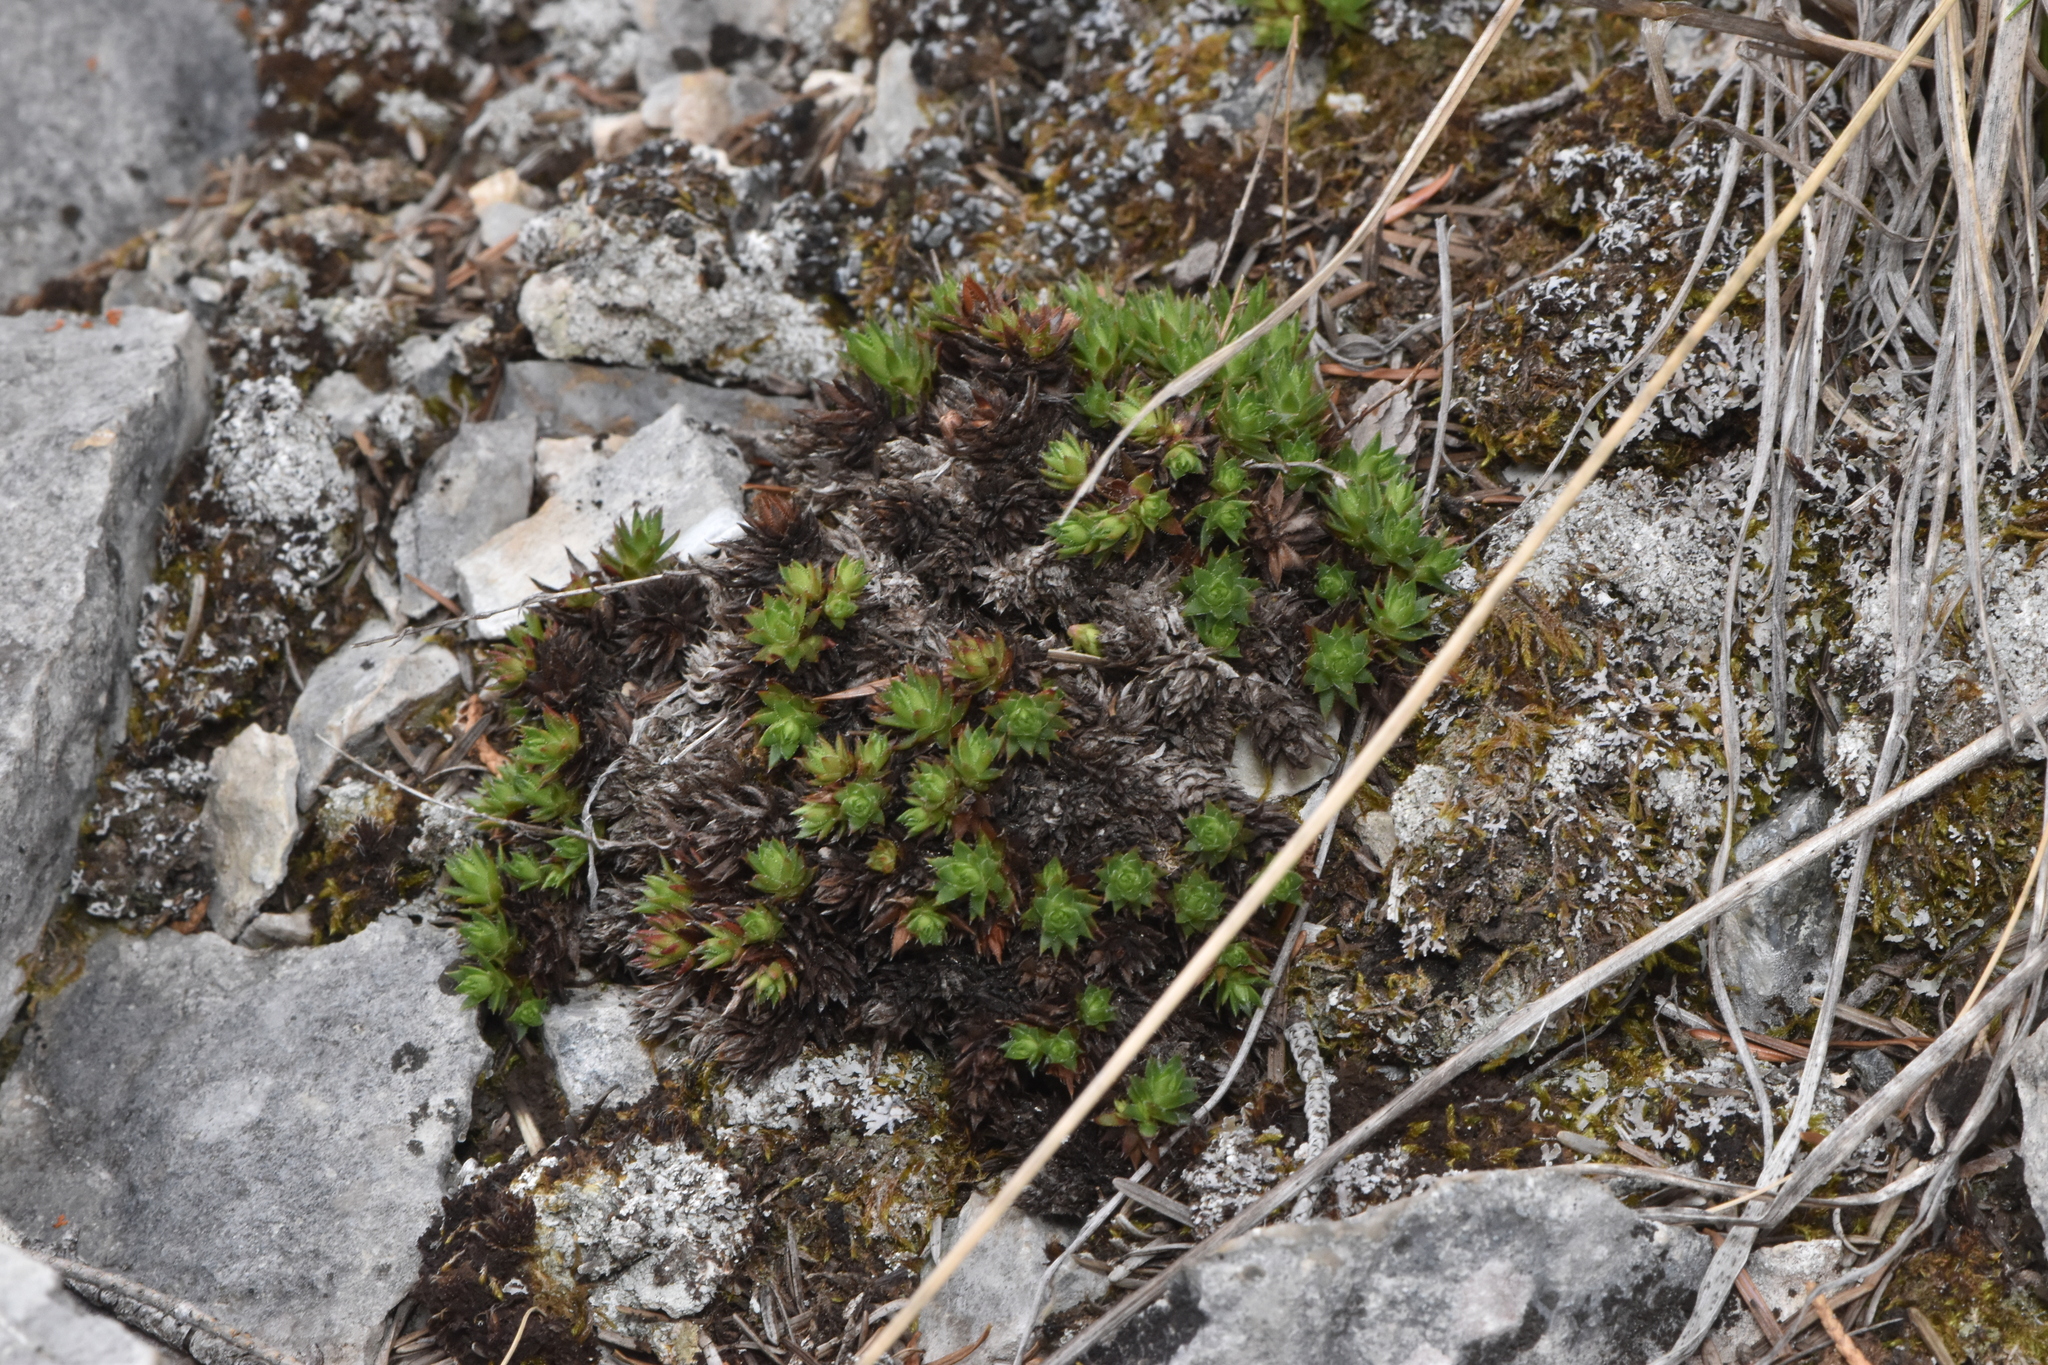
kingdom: Plantae
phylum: Tracheophyta
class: Magnoliopsida
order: Saxifragales
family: Saxifragaceae
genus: Saxifraga
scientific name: Saxifraga bronchialis
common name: Matted saxifrage
